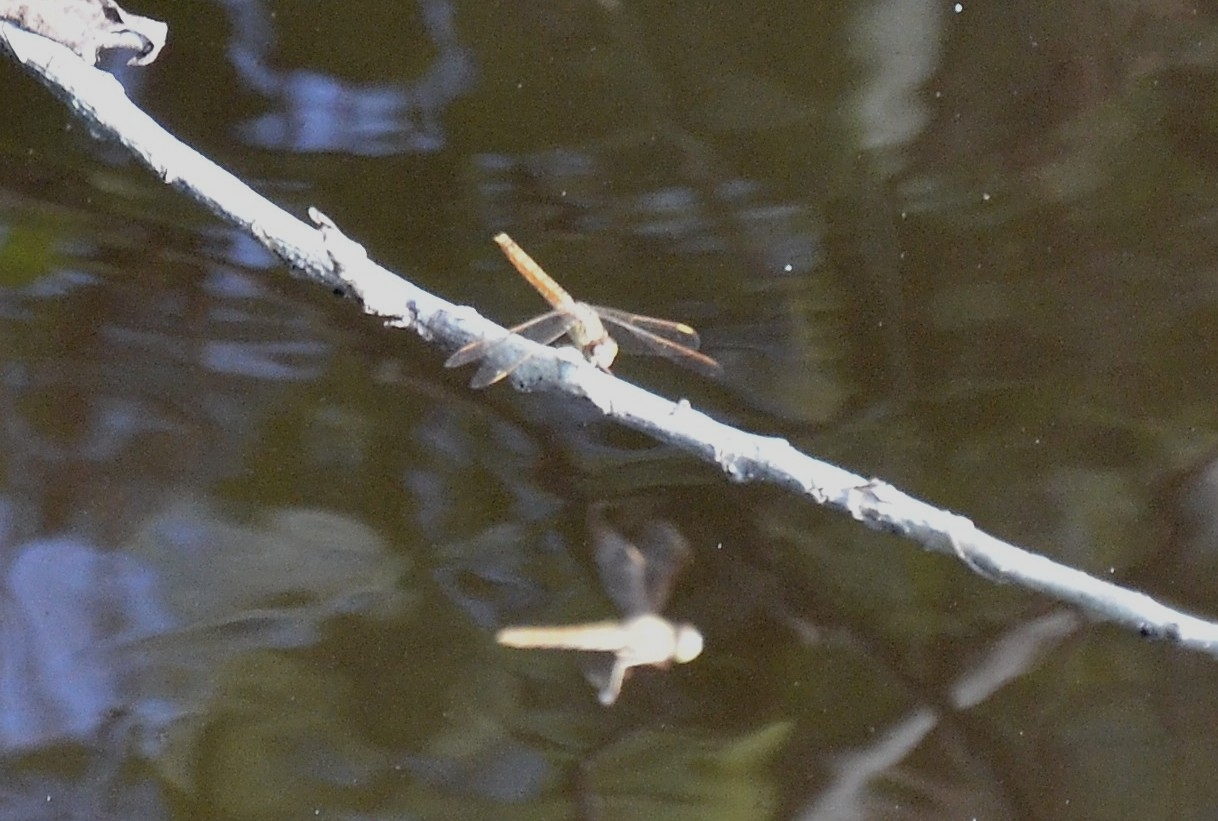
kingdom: Animalia
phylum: Arthropoda
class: Insecta
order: Odonata
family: Libellulidae
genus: Brachythemis
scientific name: Brachythemis contaminata
